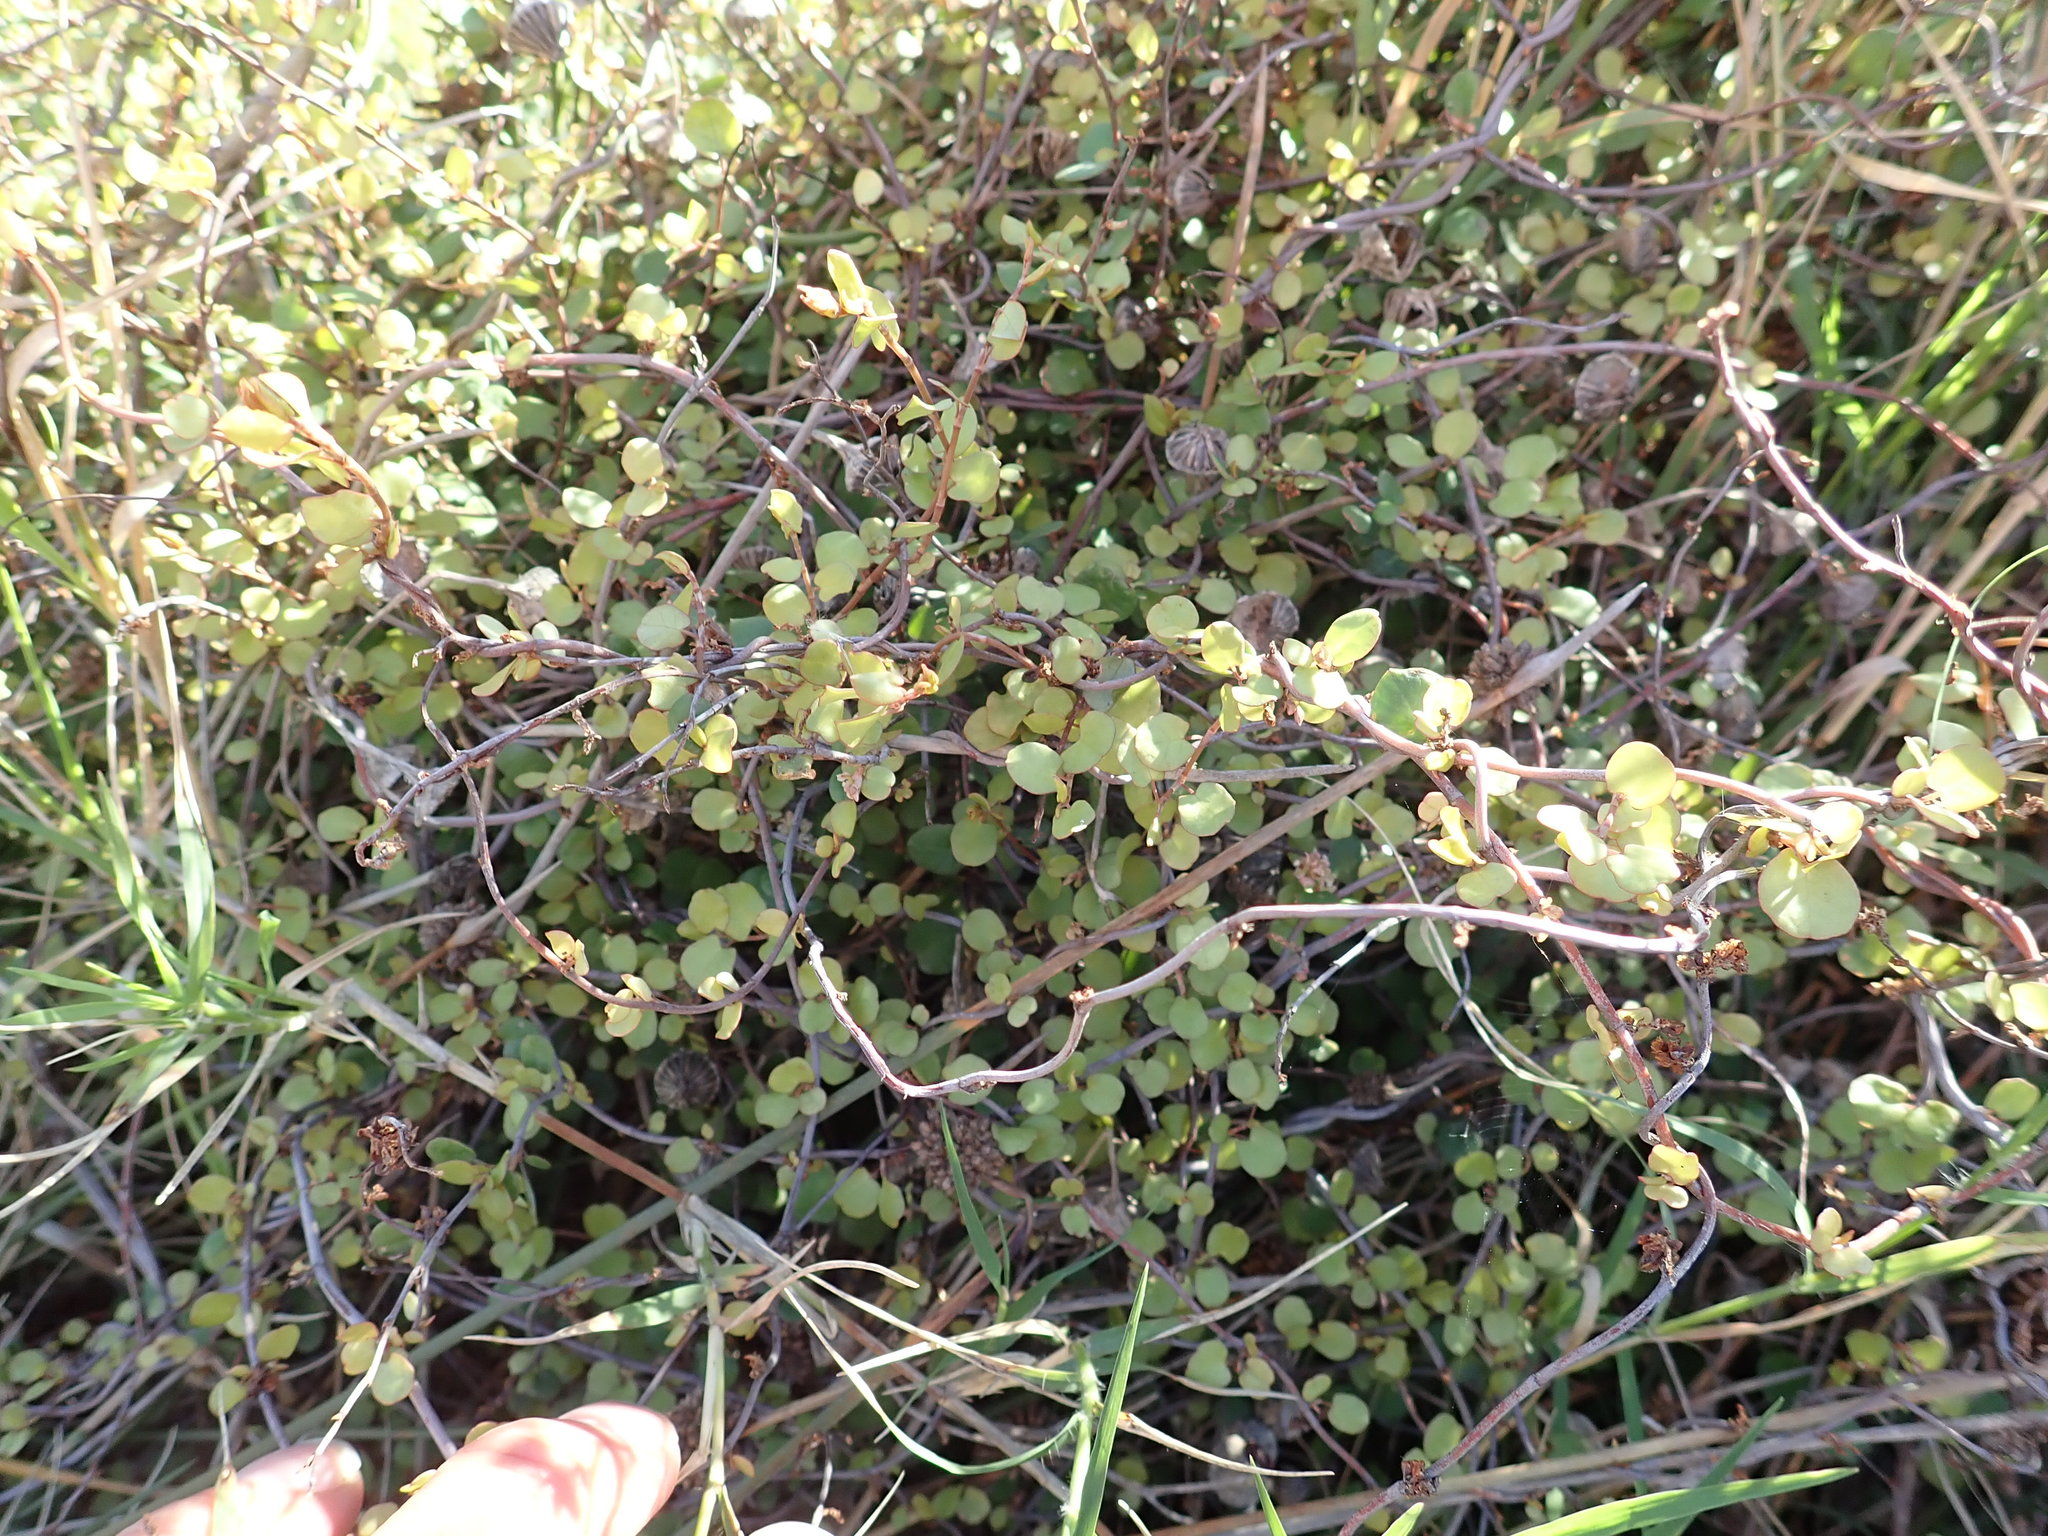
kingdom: Plantae
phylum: Tracheophyta
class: Magnoliopsida
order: Caryophyllales
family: Polygonaceae
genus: Muehlenbeckia
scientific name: Muehlenbeckia complexa
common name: Wireplant
